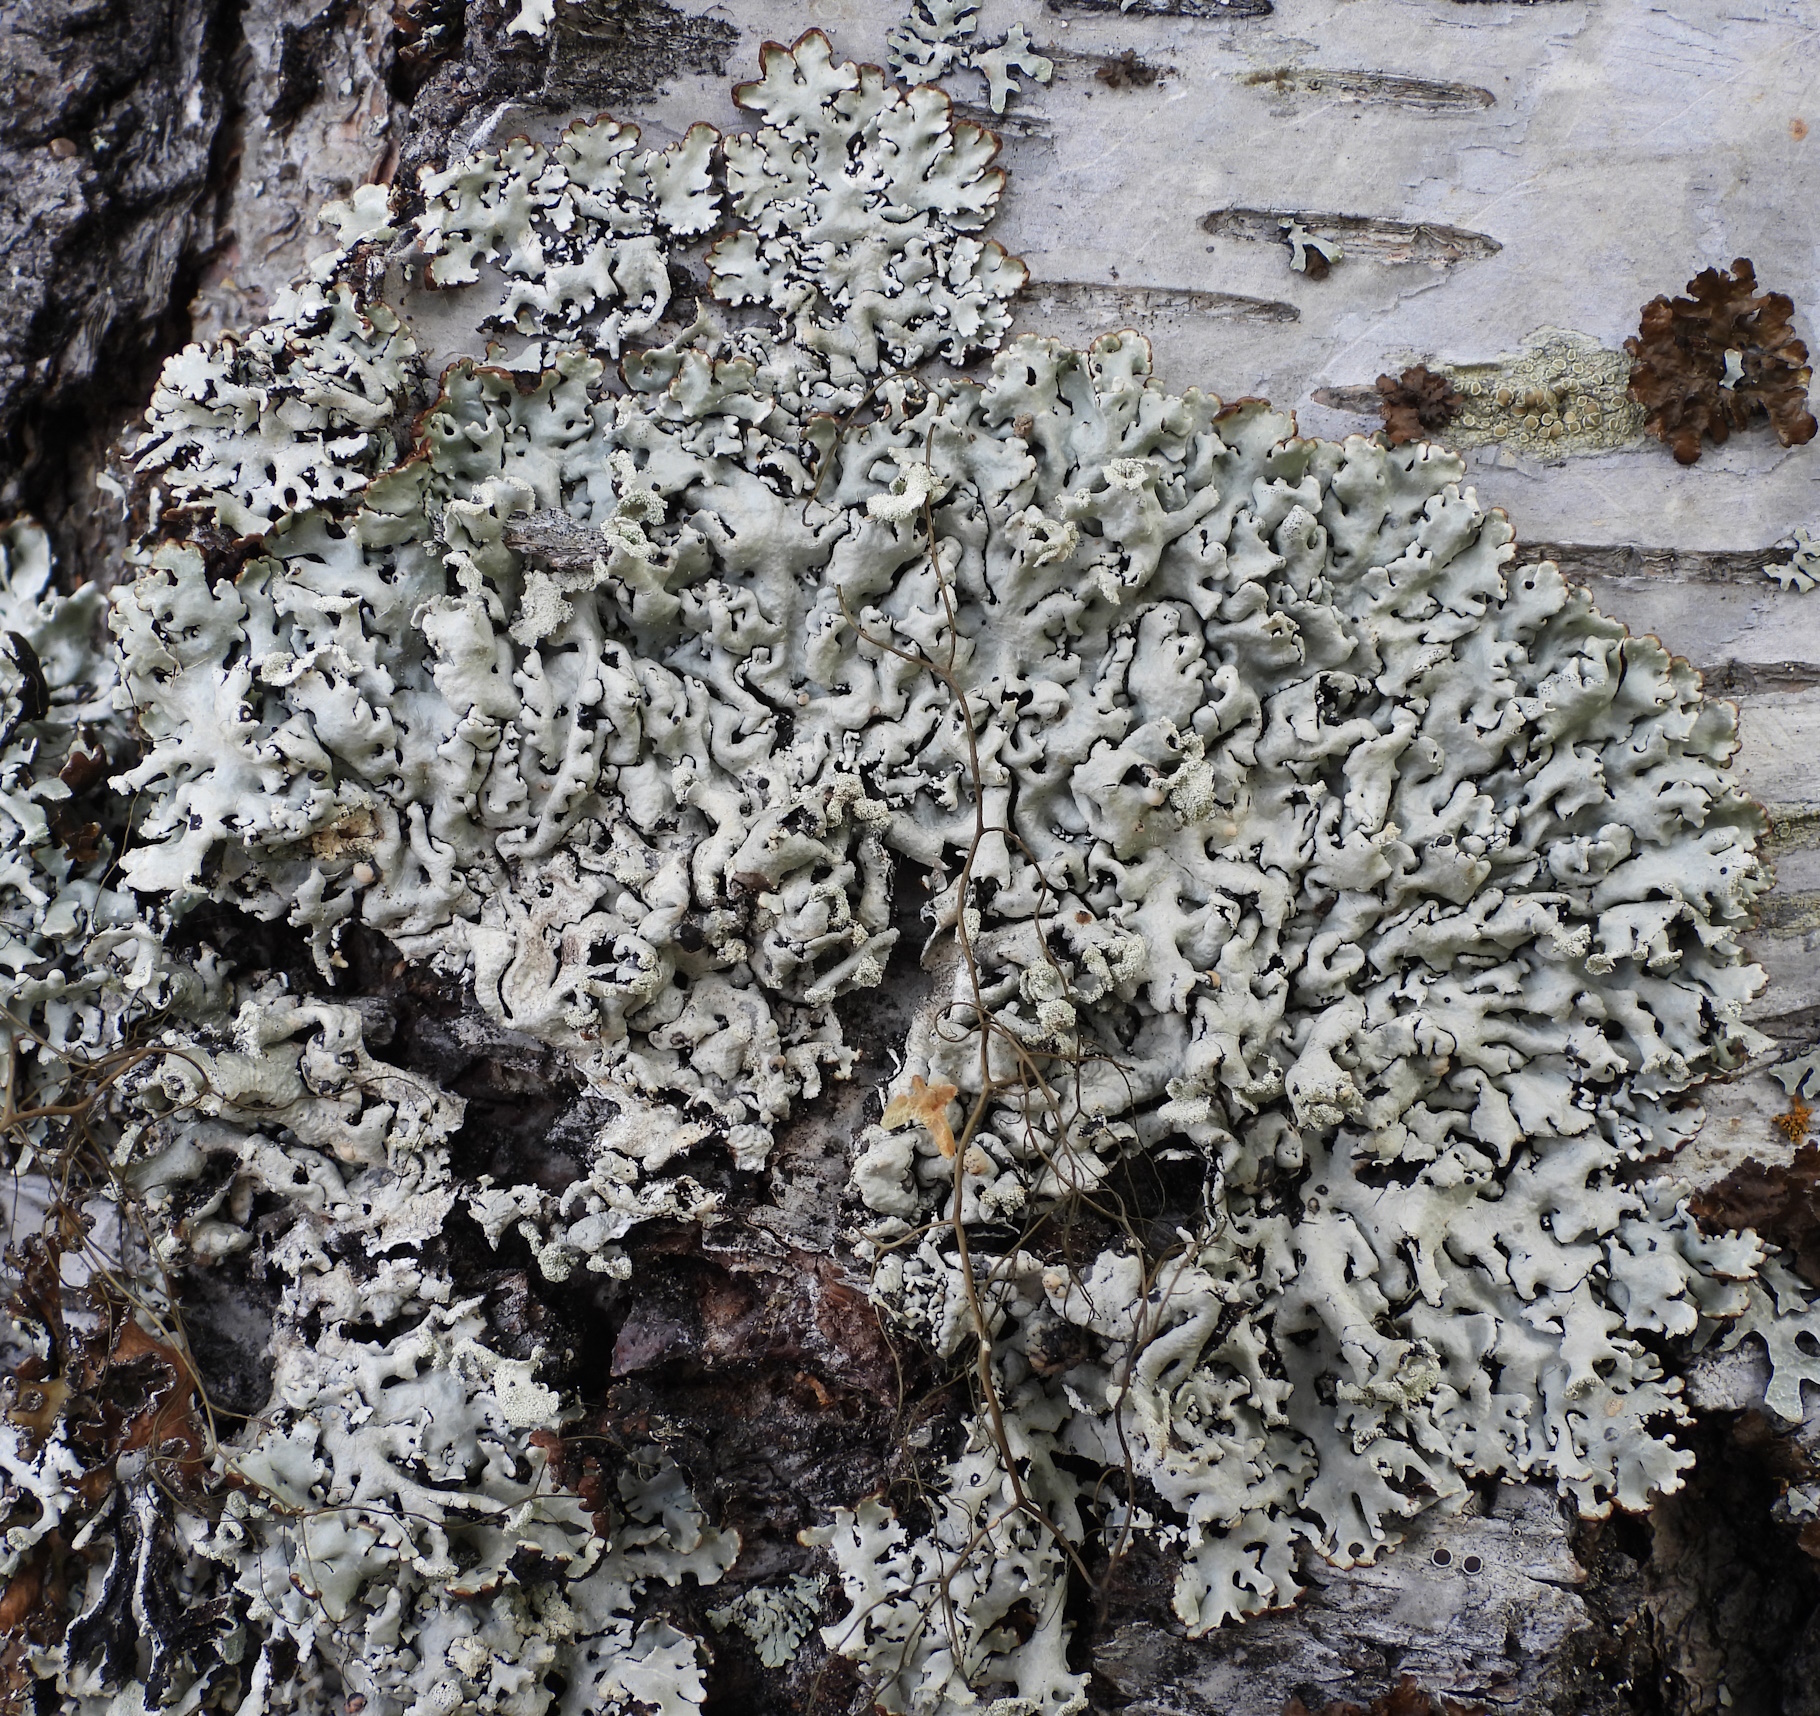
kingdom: Fungi
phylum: Ascomycota
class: Lecanoromycetes
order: Lecanorales
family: Parmeliaceae
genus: Hypogymnia
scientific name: Hypogymnia physodes
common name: Dark crottle
